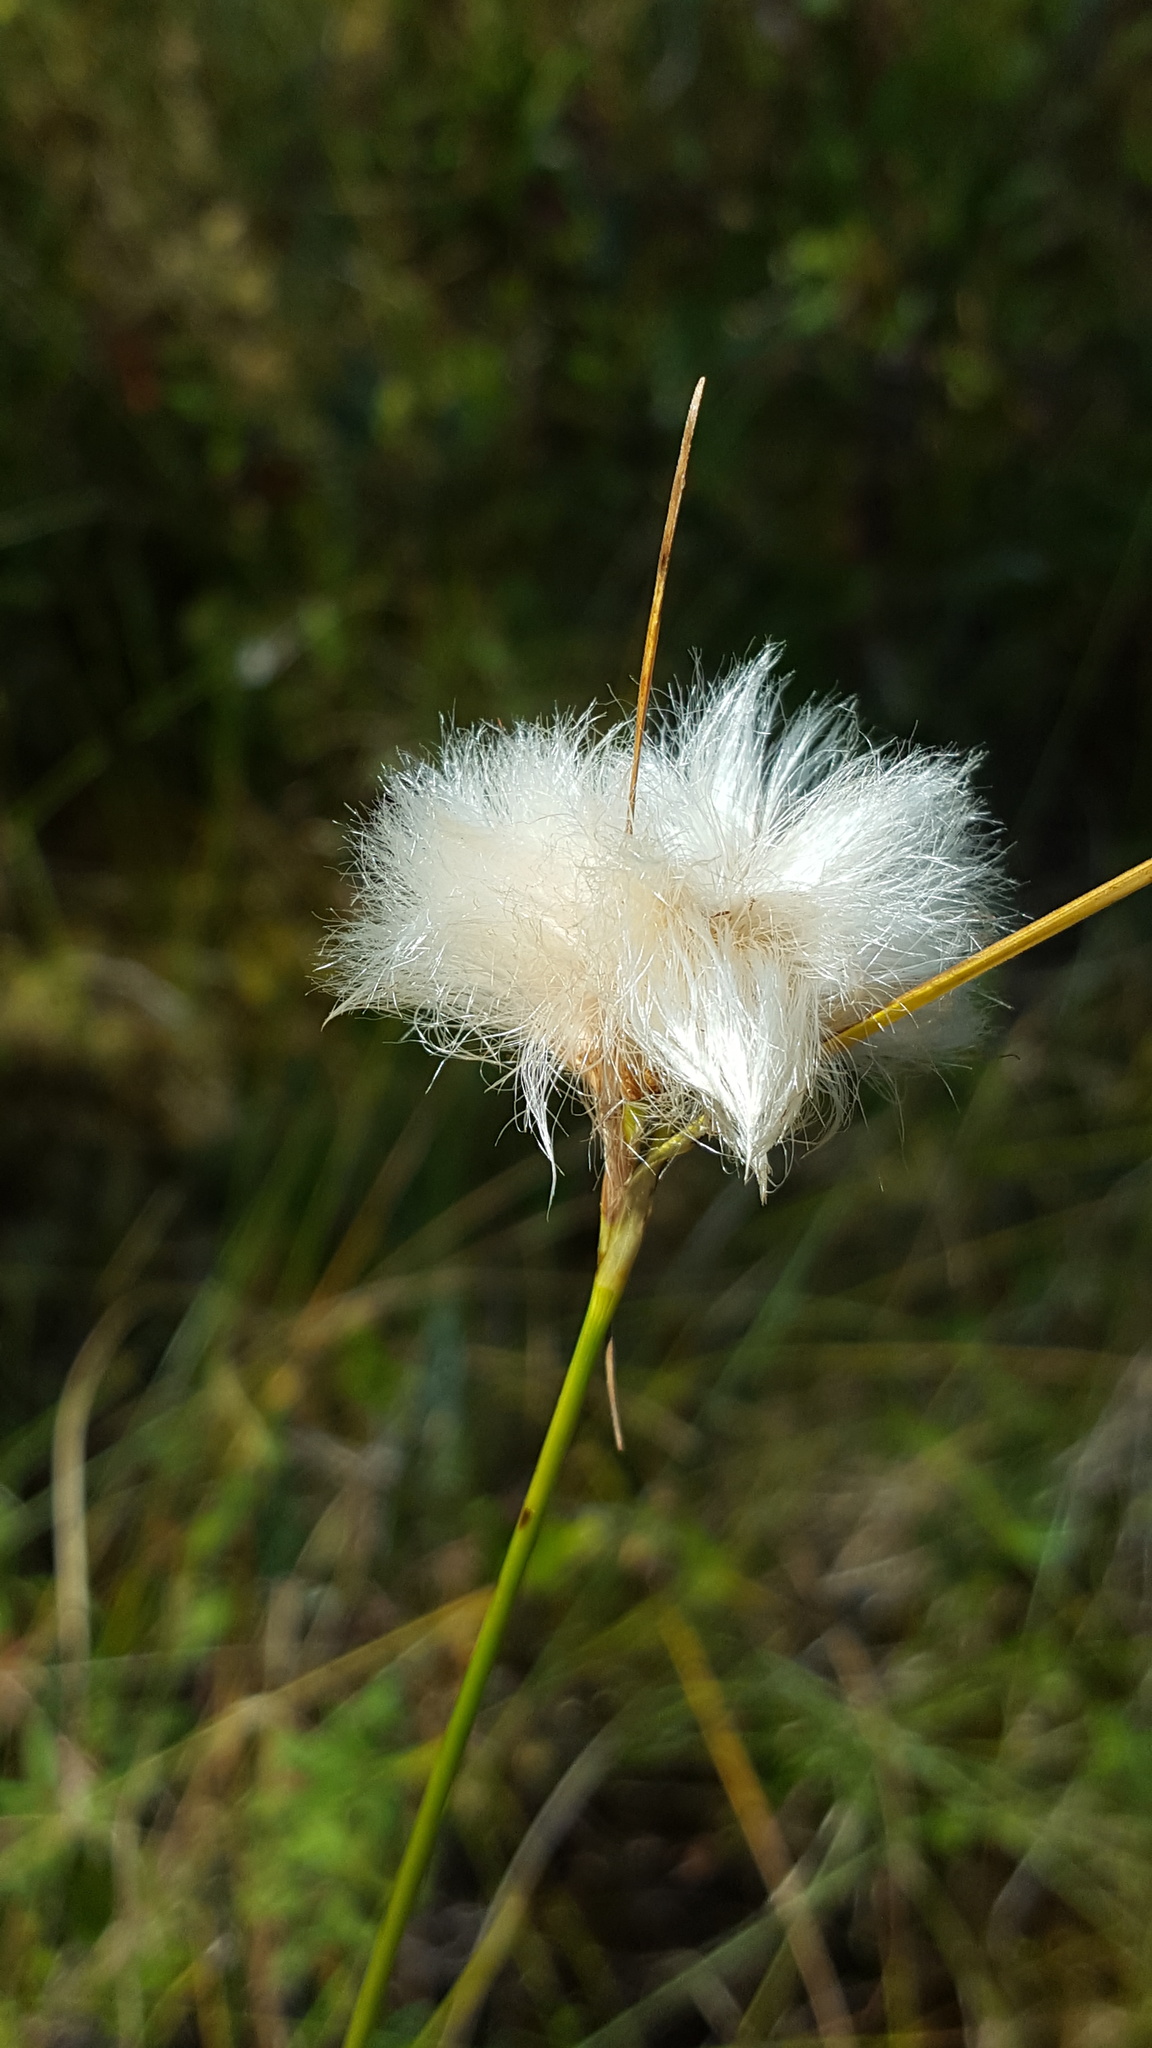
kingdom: Plantae
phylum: Tracheophyta
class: Liliopsida
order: Poales
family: Cyperaceae
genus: Eriophorum
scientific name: Eriophorum virginicum
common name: Tawny cottongrass
